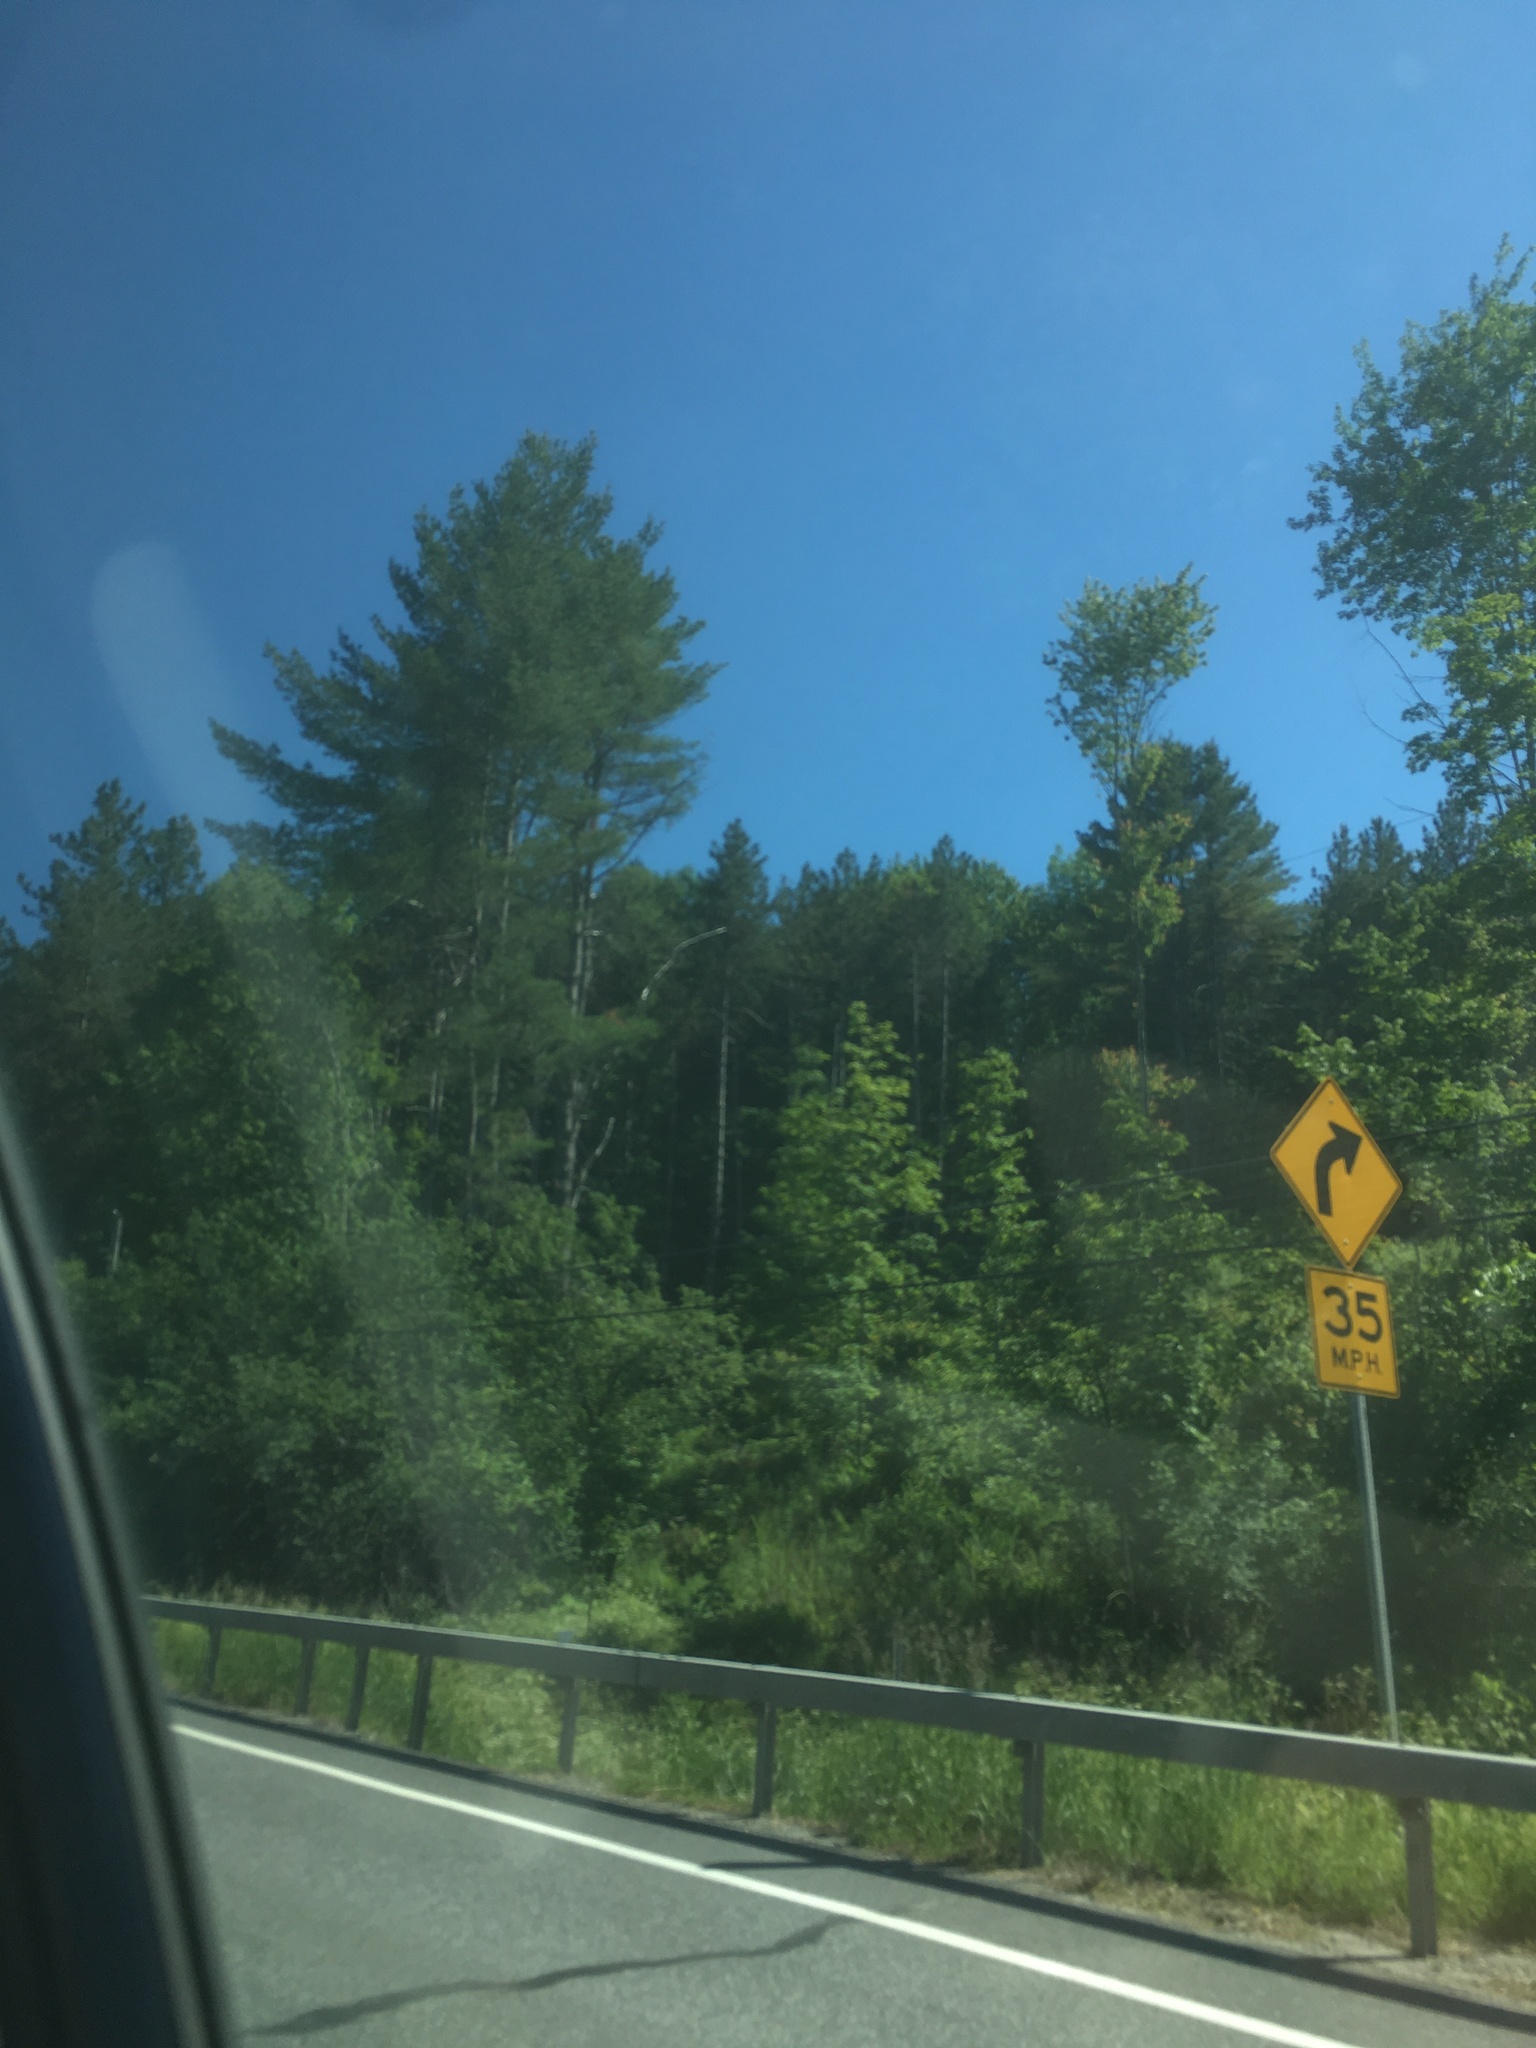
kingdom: Plantae
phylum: Tracheophyta
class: Pinopsida
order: Pinales
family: Pinaceae
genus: Pinus
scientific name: Pinus strobus
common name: Weymouth pine
